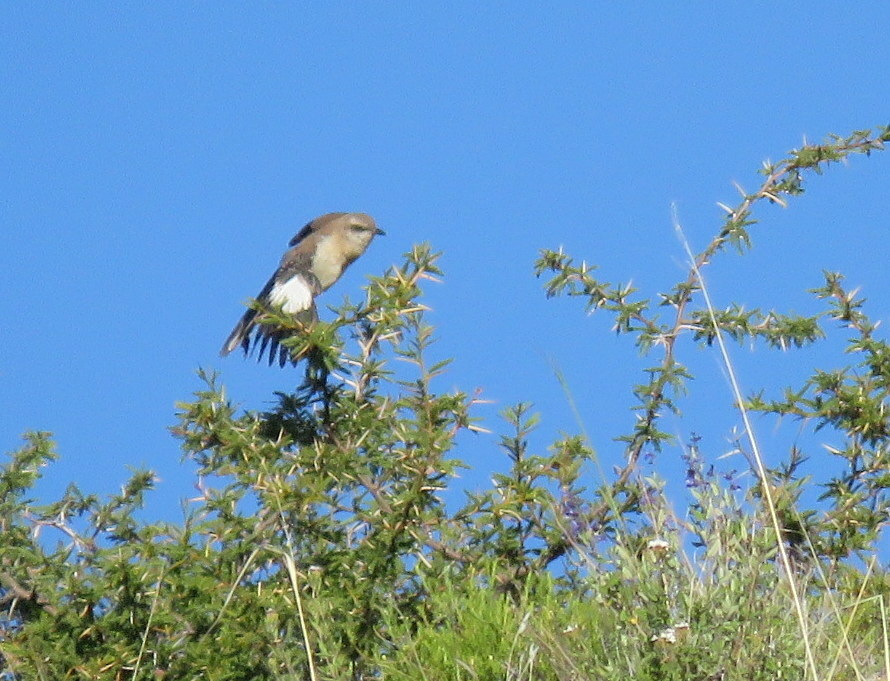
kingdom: Animalia
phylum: Chordata
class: Aves
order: Passeriformes
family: Mimidae
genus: Mimus
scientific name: Mimus dorsalis
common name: Brown-backed mockingbird
